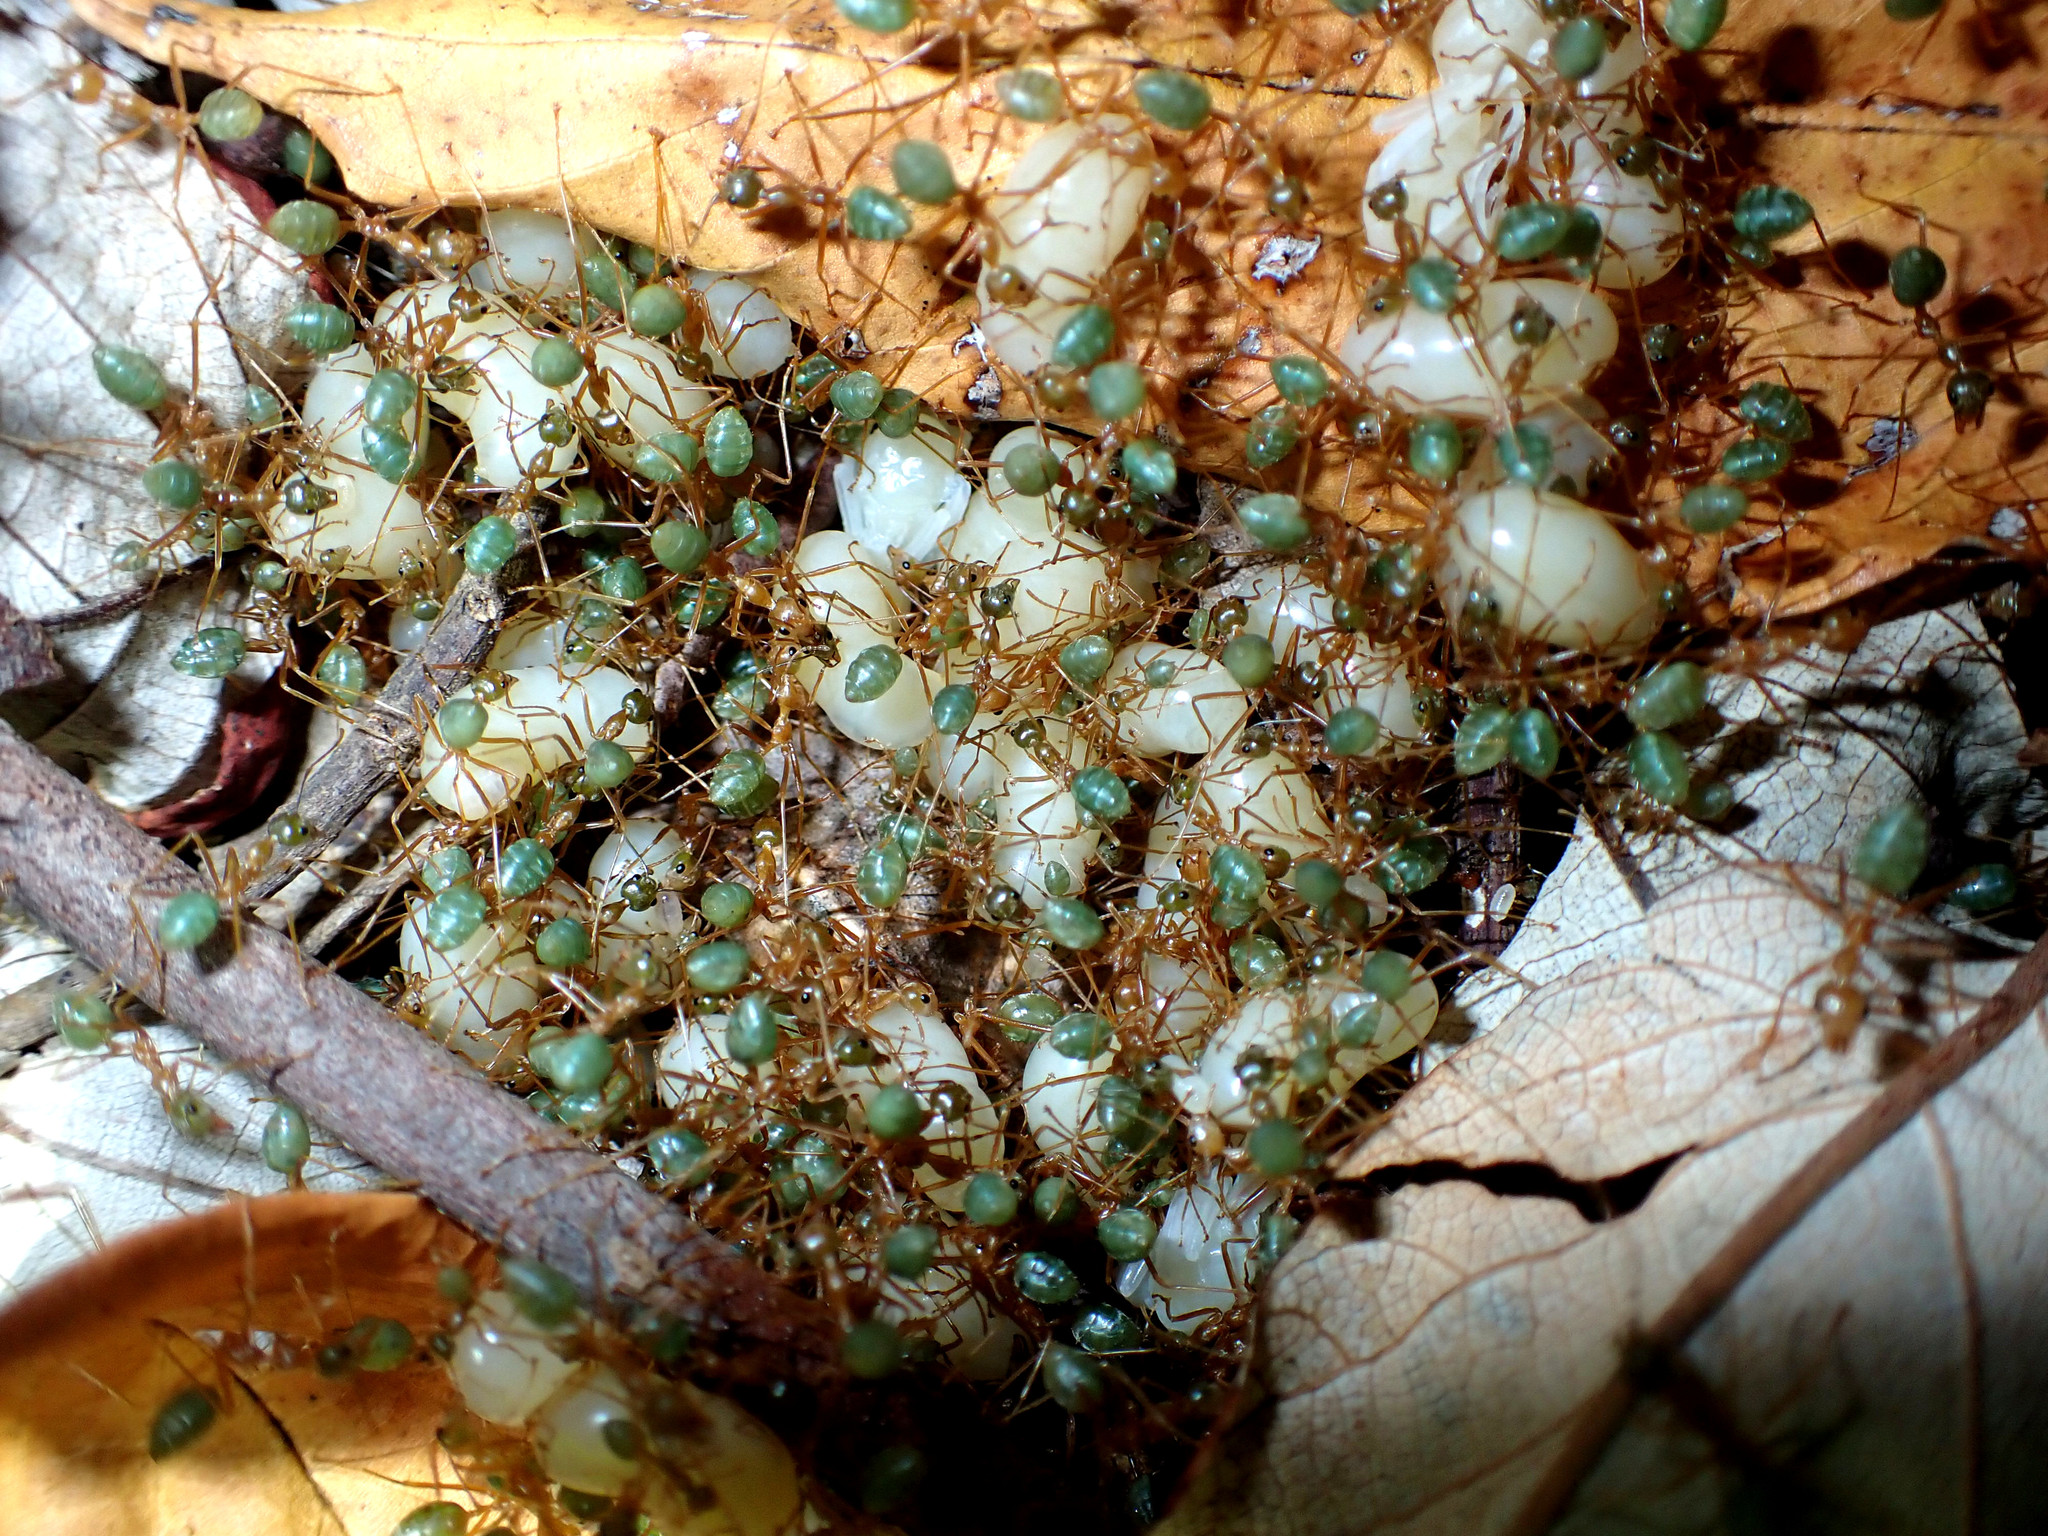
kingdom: Animalia
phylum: Arthropoda
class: Insecta
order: Hymenoptera
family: Formicidae
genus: Oecophylla
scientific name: Oecophylla smaragdina
